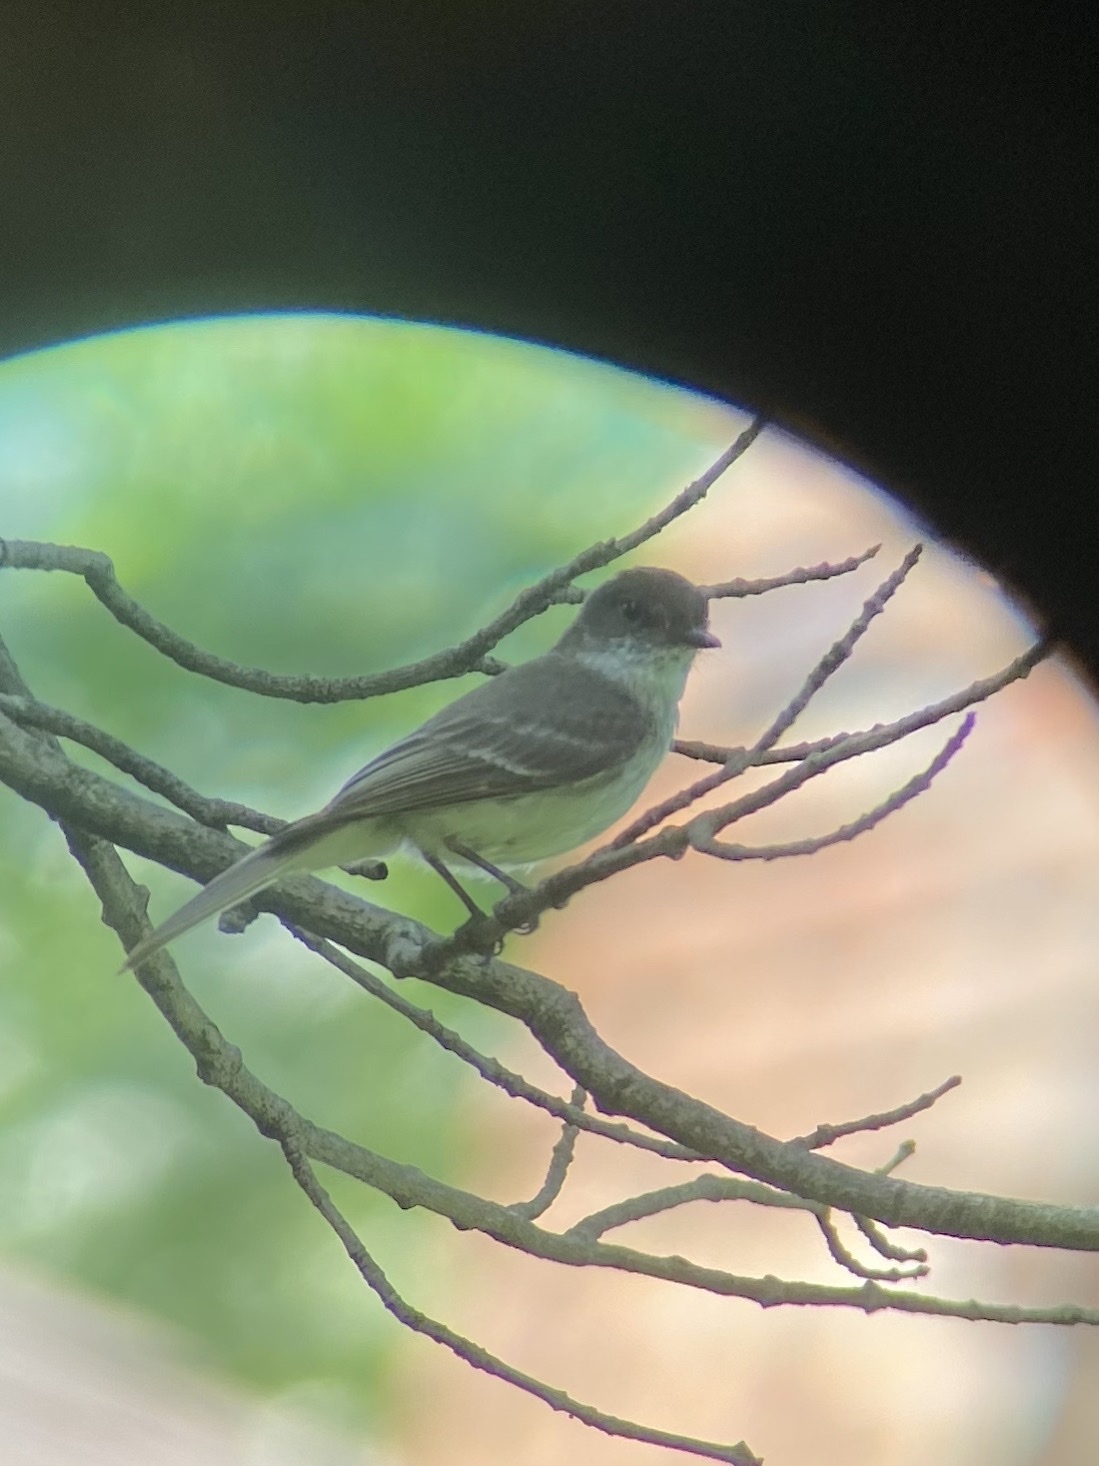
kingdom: Animalia
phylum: Chordata
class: Aves
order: Passeriformes
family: Tyrannidae
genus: Sayornis
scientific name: Sayornis phoebe
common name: Eastern phoebe
